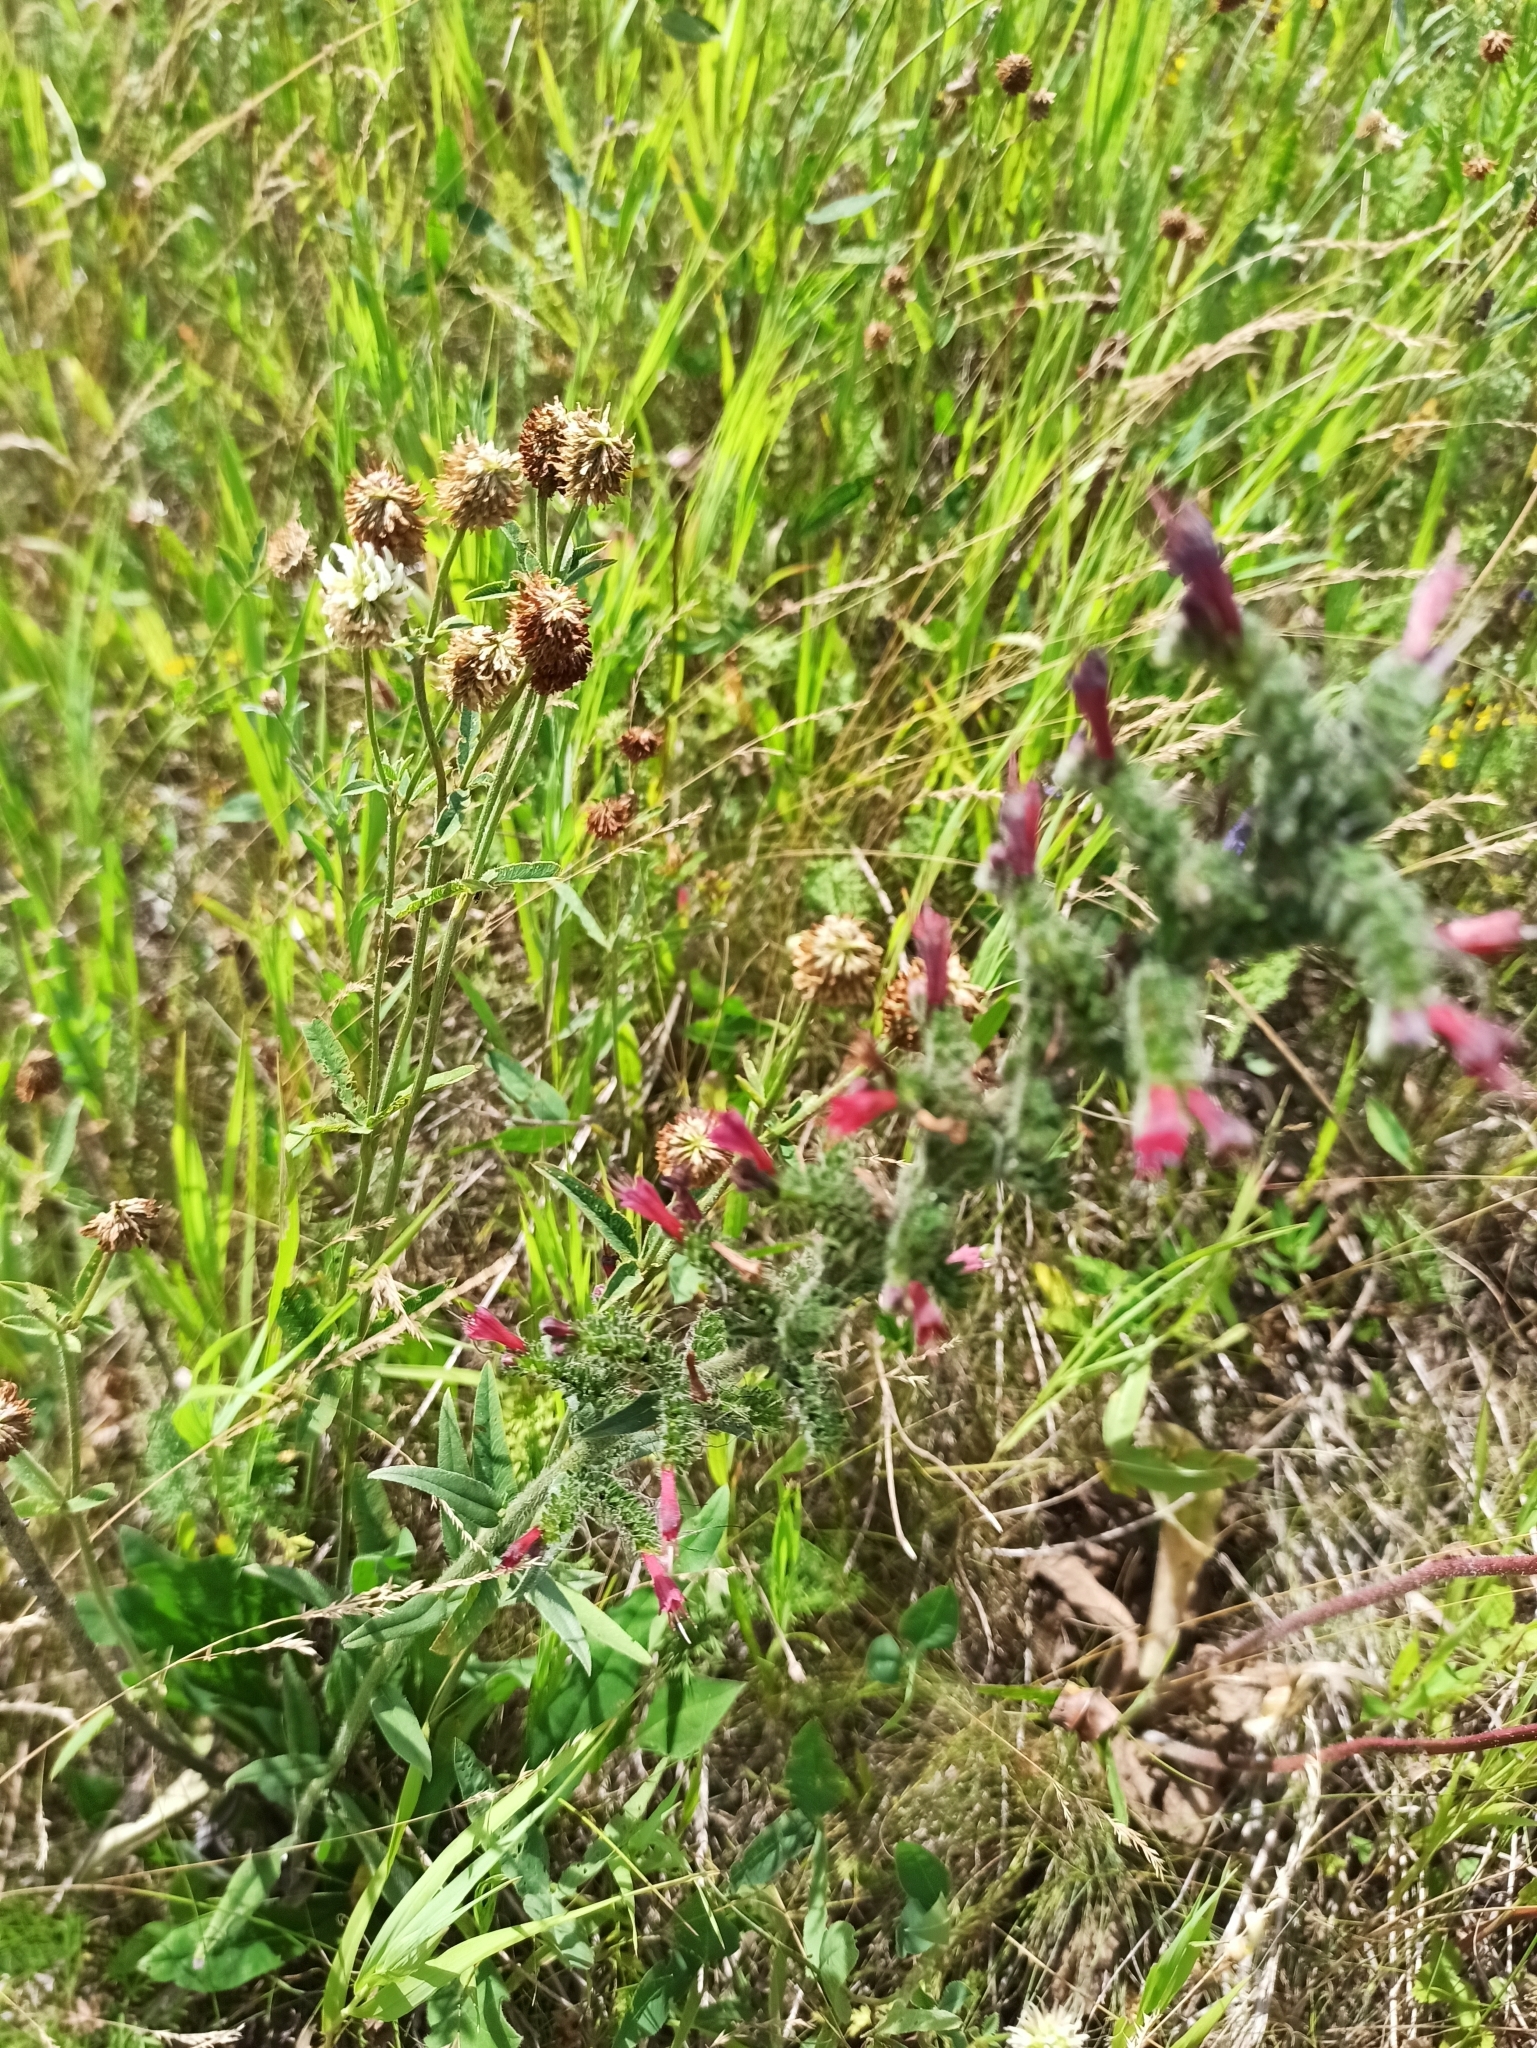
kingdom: Plantae
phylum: Tracheophyta
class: Magnoliopsida
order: Boraginales
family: Boraginaceae
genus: Pontechium
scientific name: Pontechium maculatum
